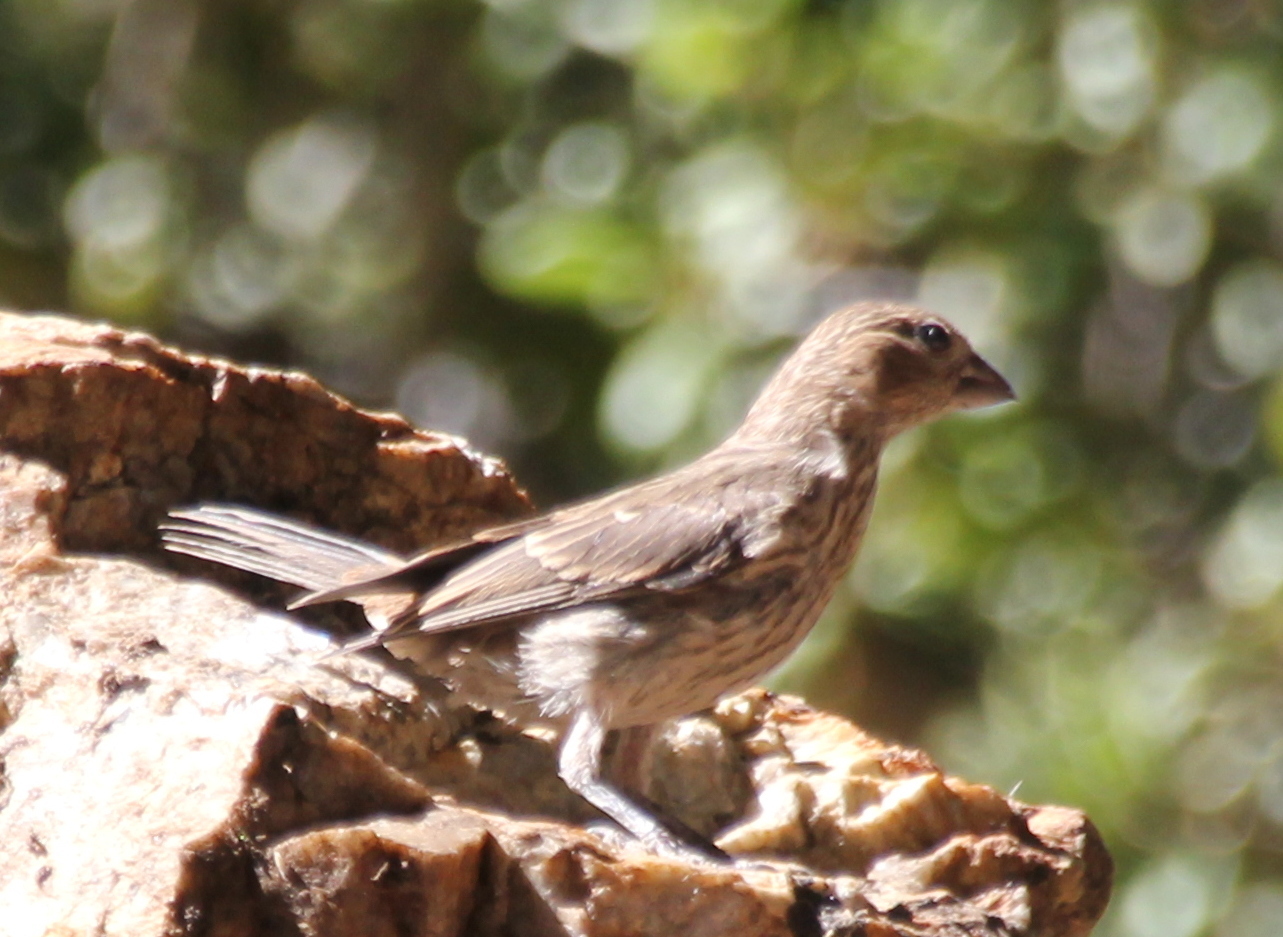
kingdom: Animalia
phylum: Chordata
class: Aves
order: Passeriformes
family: Fringillidae
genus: Haemorhous
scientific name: Haemorhous mexicanus
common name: House finch
